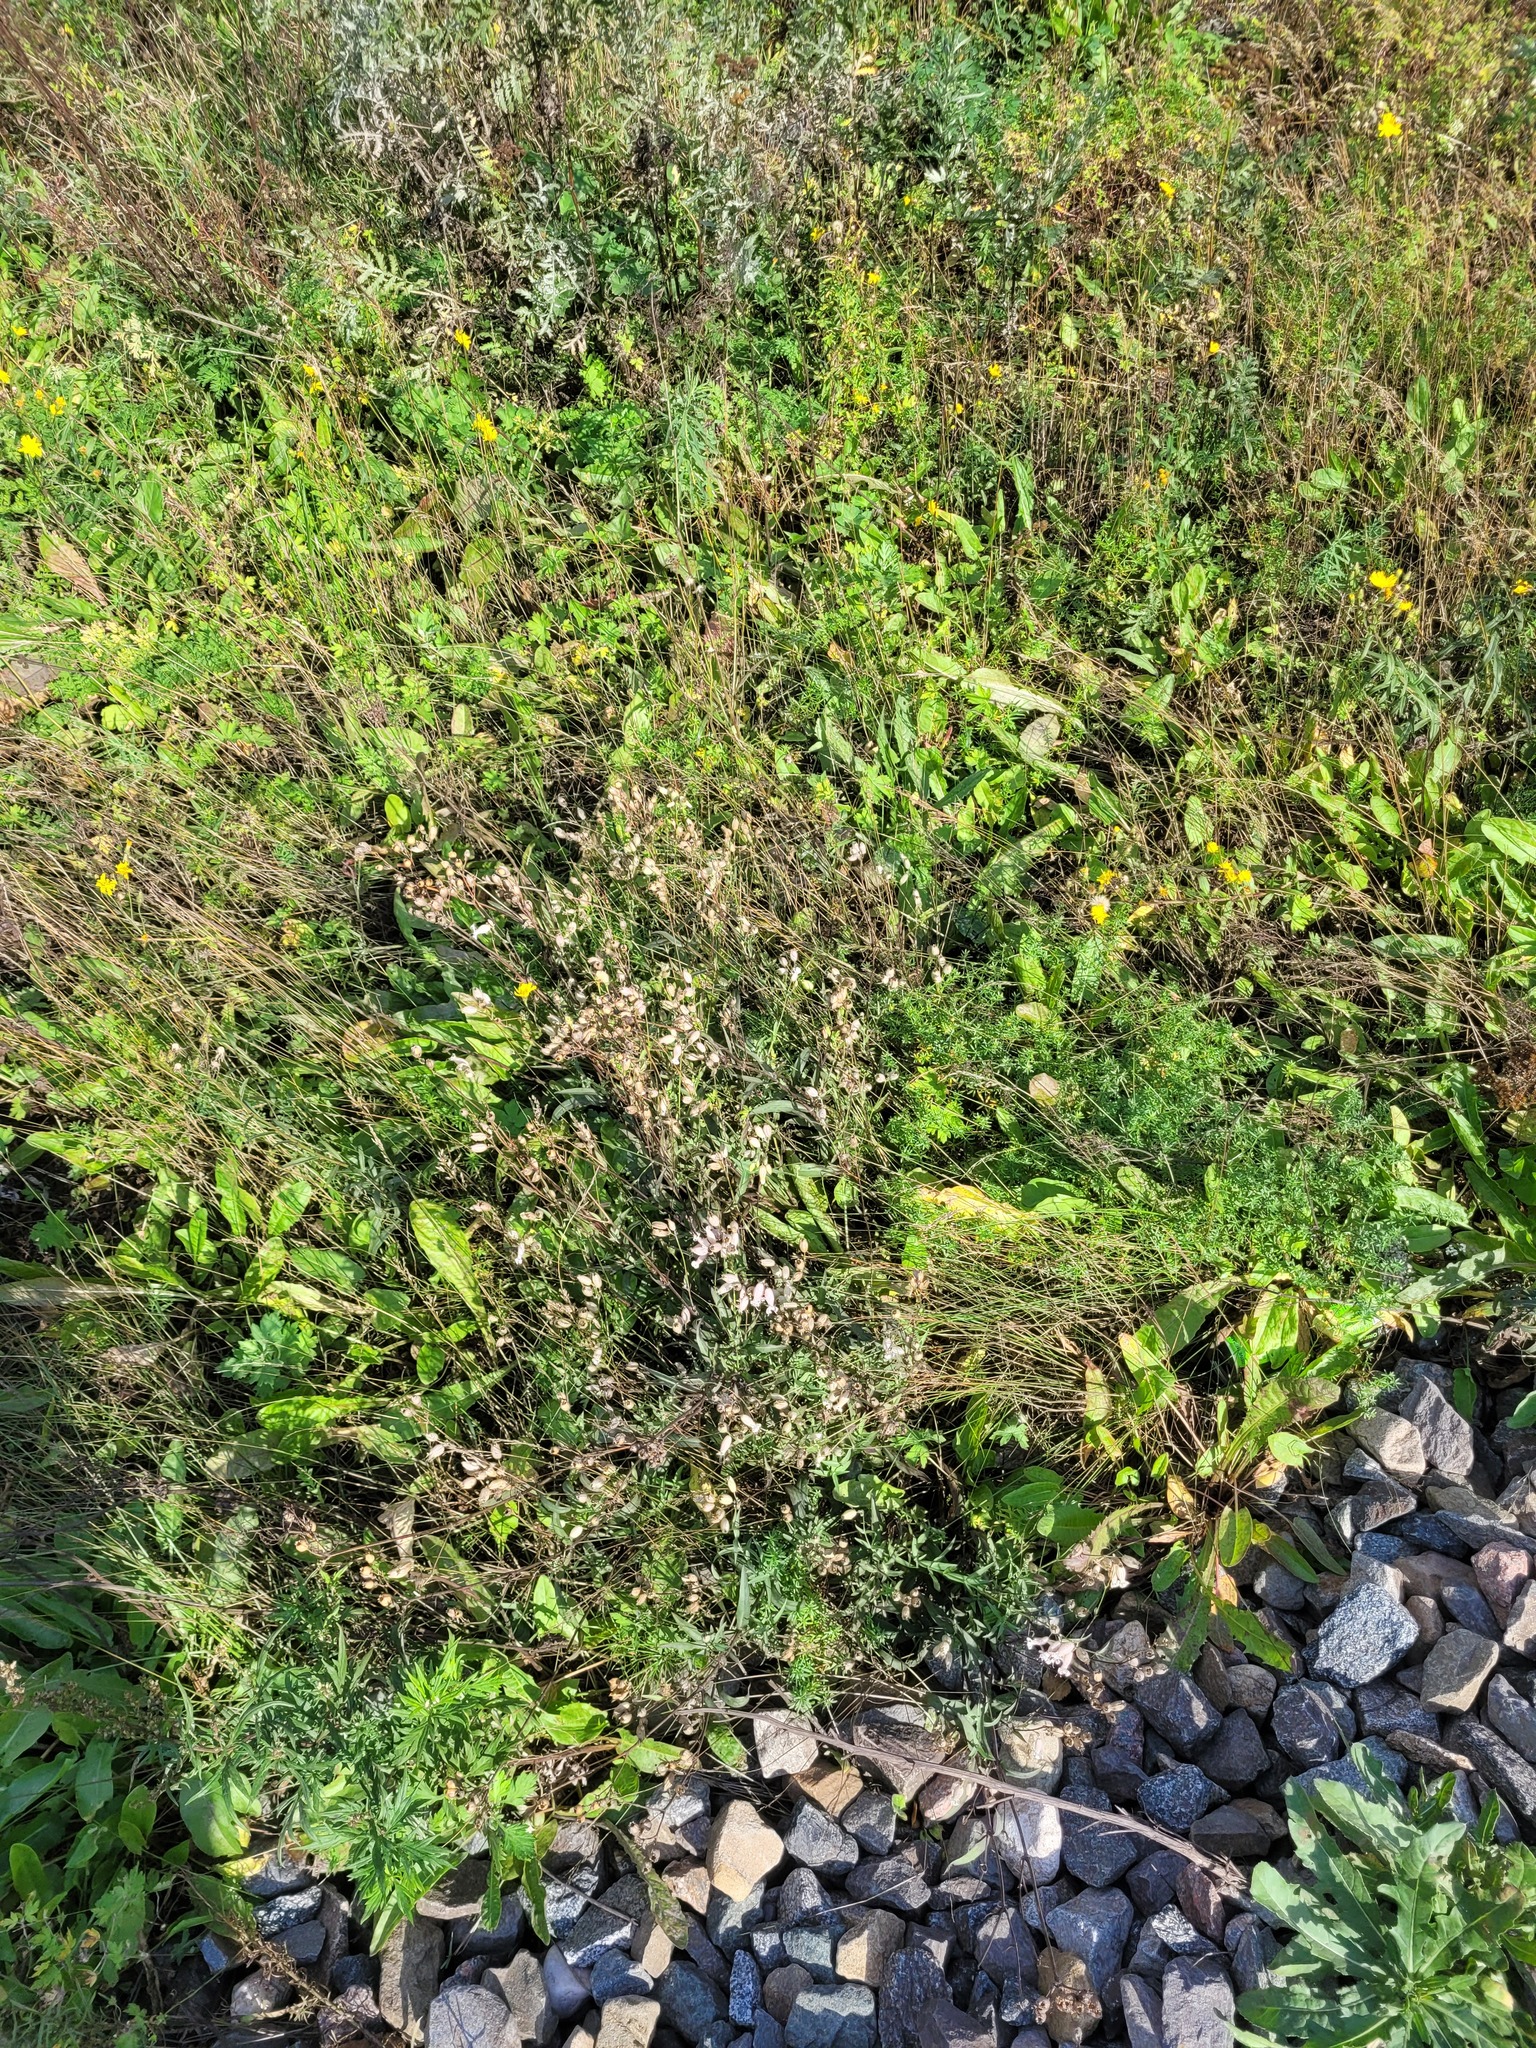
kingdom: Plantae
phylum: Tracheophyta
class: Magnoliopsida
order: Caryophyllales
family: Caryophyllaceae
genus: Silene
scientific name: Silene vulgaris
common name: Bladder campion
